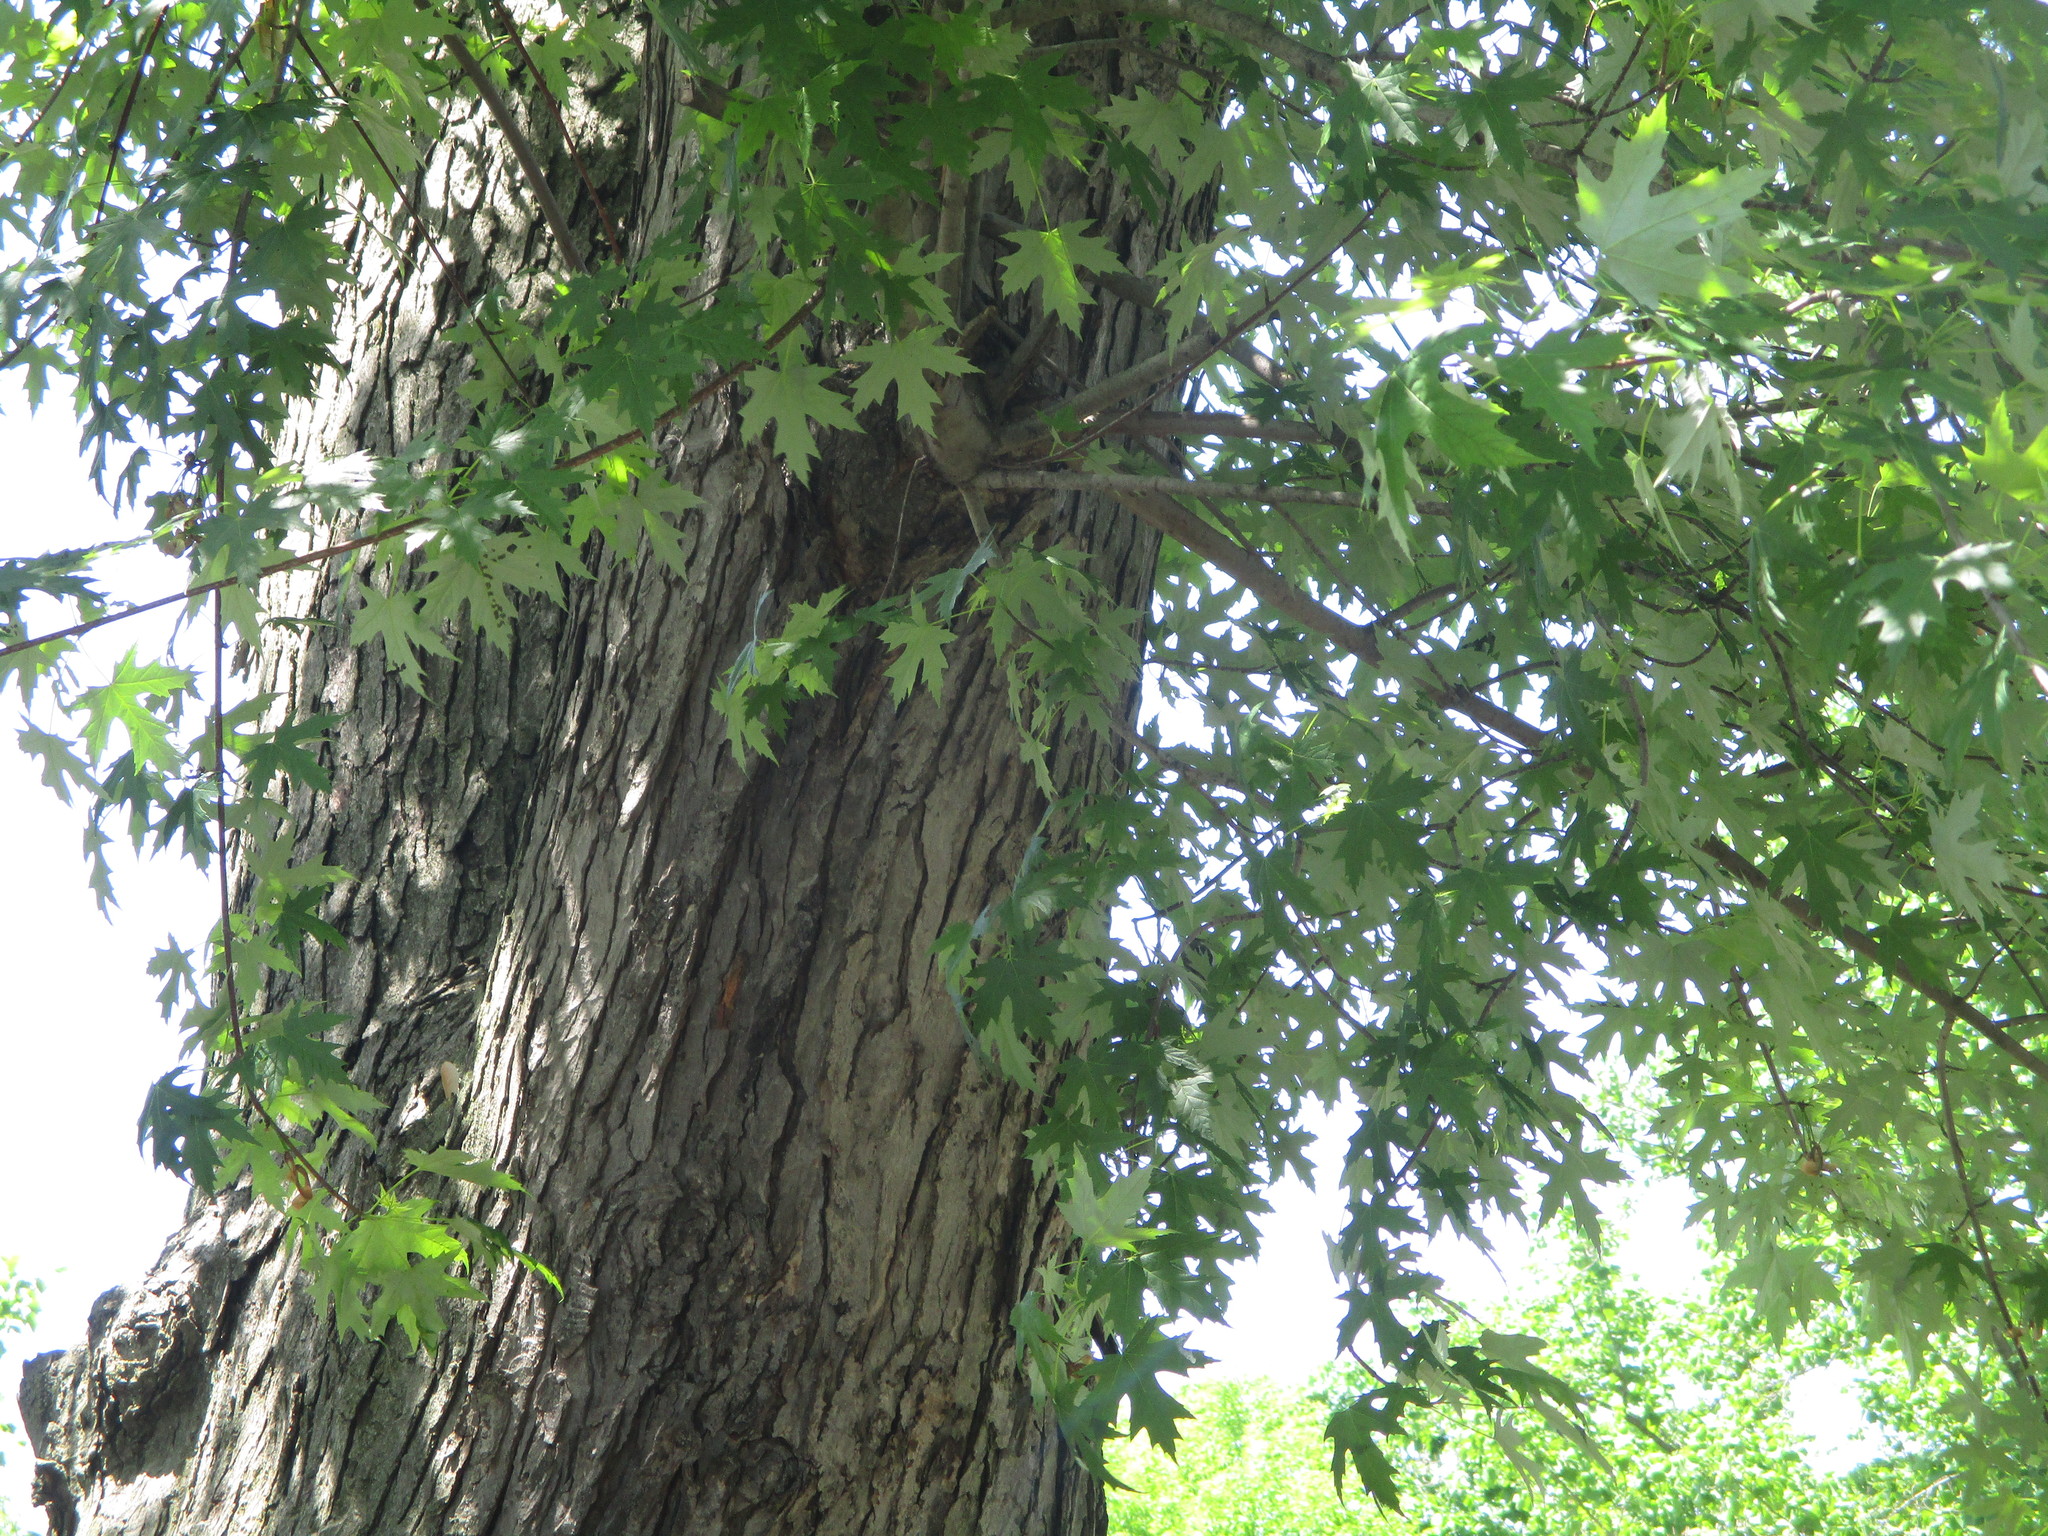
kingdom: Plantae
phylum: Tracheophyta
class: Magnoliopsida
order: Sapindales
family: Sapindaceae
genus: Acer
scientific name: Acer saccharinum
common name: Silver maple
